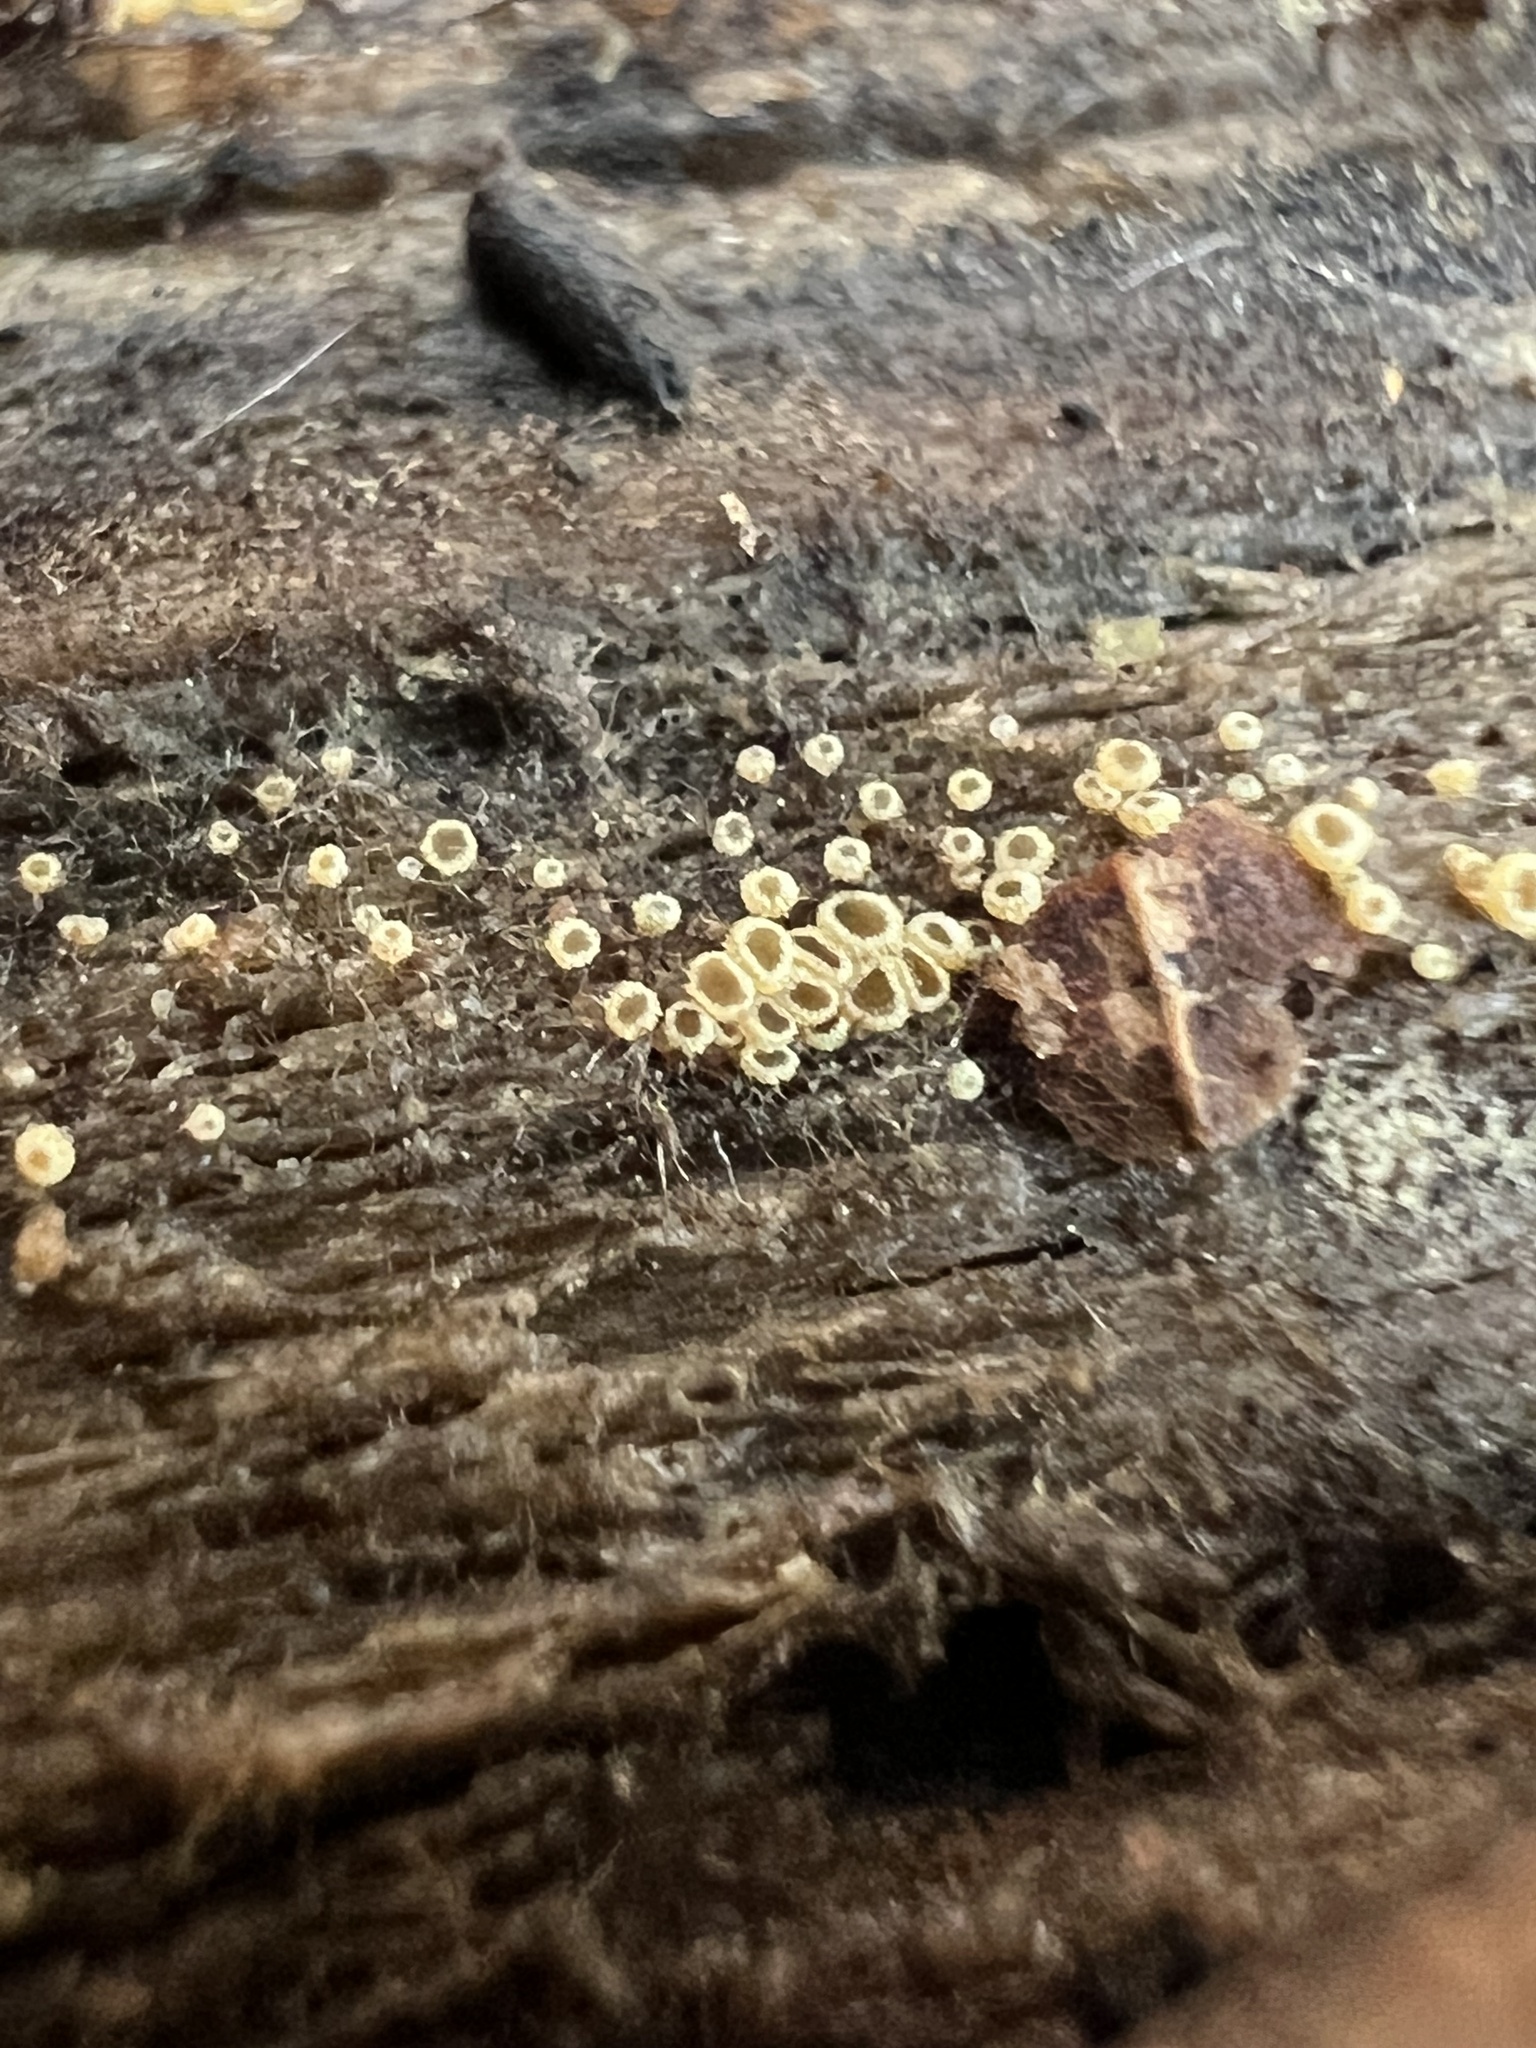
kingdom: Fungi
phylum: Ascomycota
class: Leotiomycetes
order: Helotiales
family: Arachnopezizaceae
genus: Arachnopeziza
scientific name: Arachnopeziza trabinelloides
